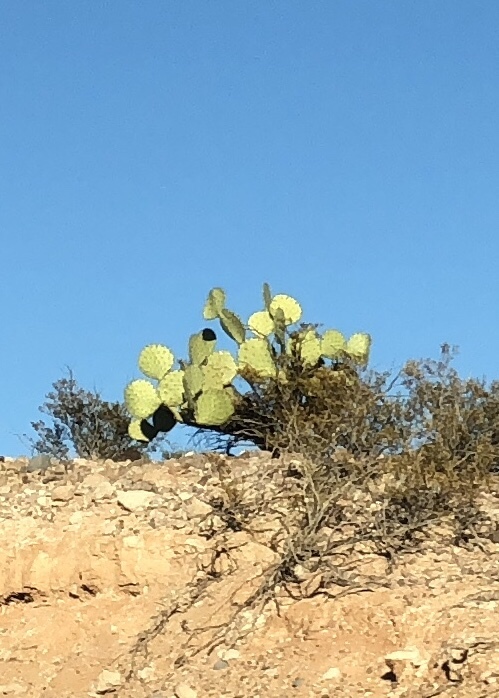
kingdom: Plantae
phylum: Tracheophyta
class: Magnoliopsida
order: Caryophyllales
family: Cactaceae
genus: Opuntia
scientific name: Opuntia orbiculata
